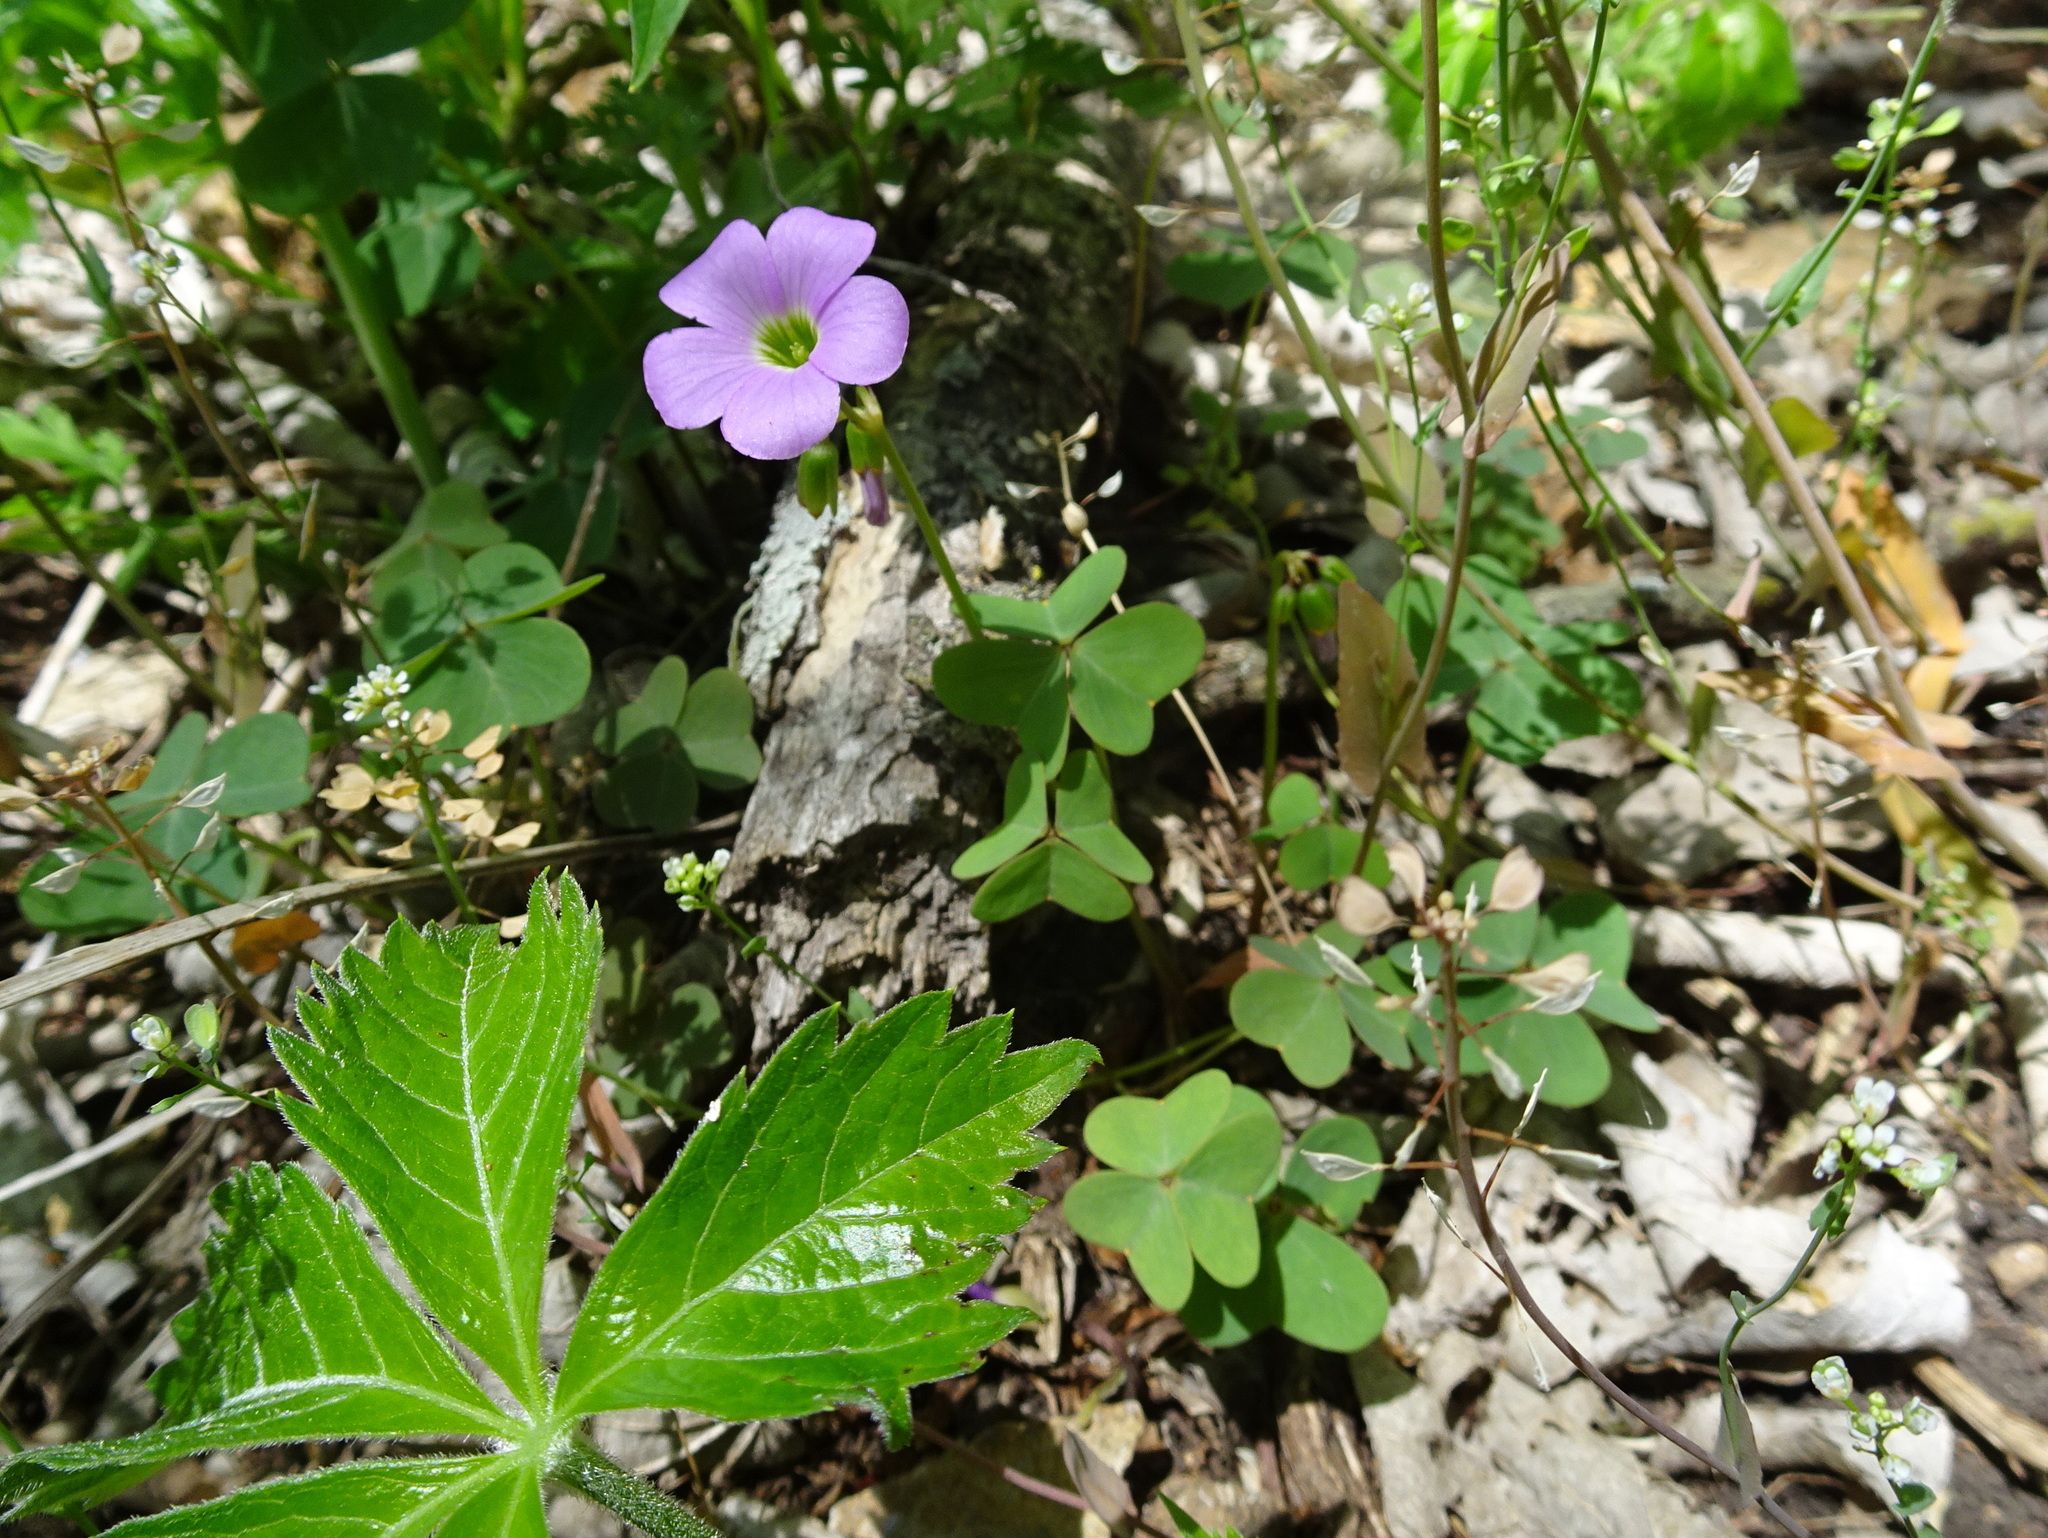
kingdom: Plantae
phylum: Tracheophyta
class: Magnoliopsida
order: Oxalidales
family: Oxalidaceae
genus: Oxalis
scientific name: Oxalis violacea
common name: Violet wood-sorrel
